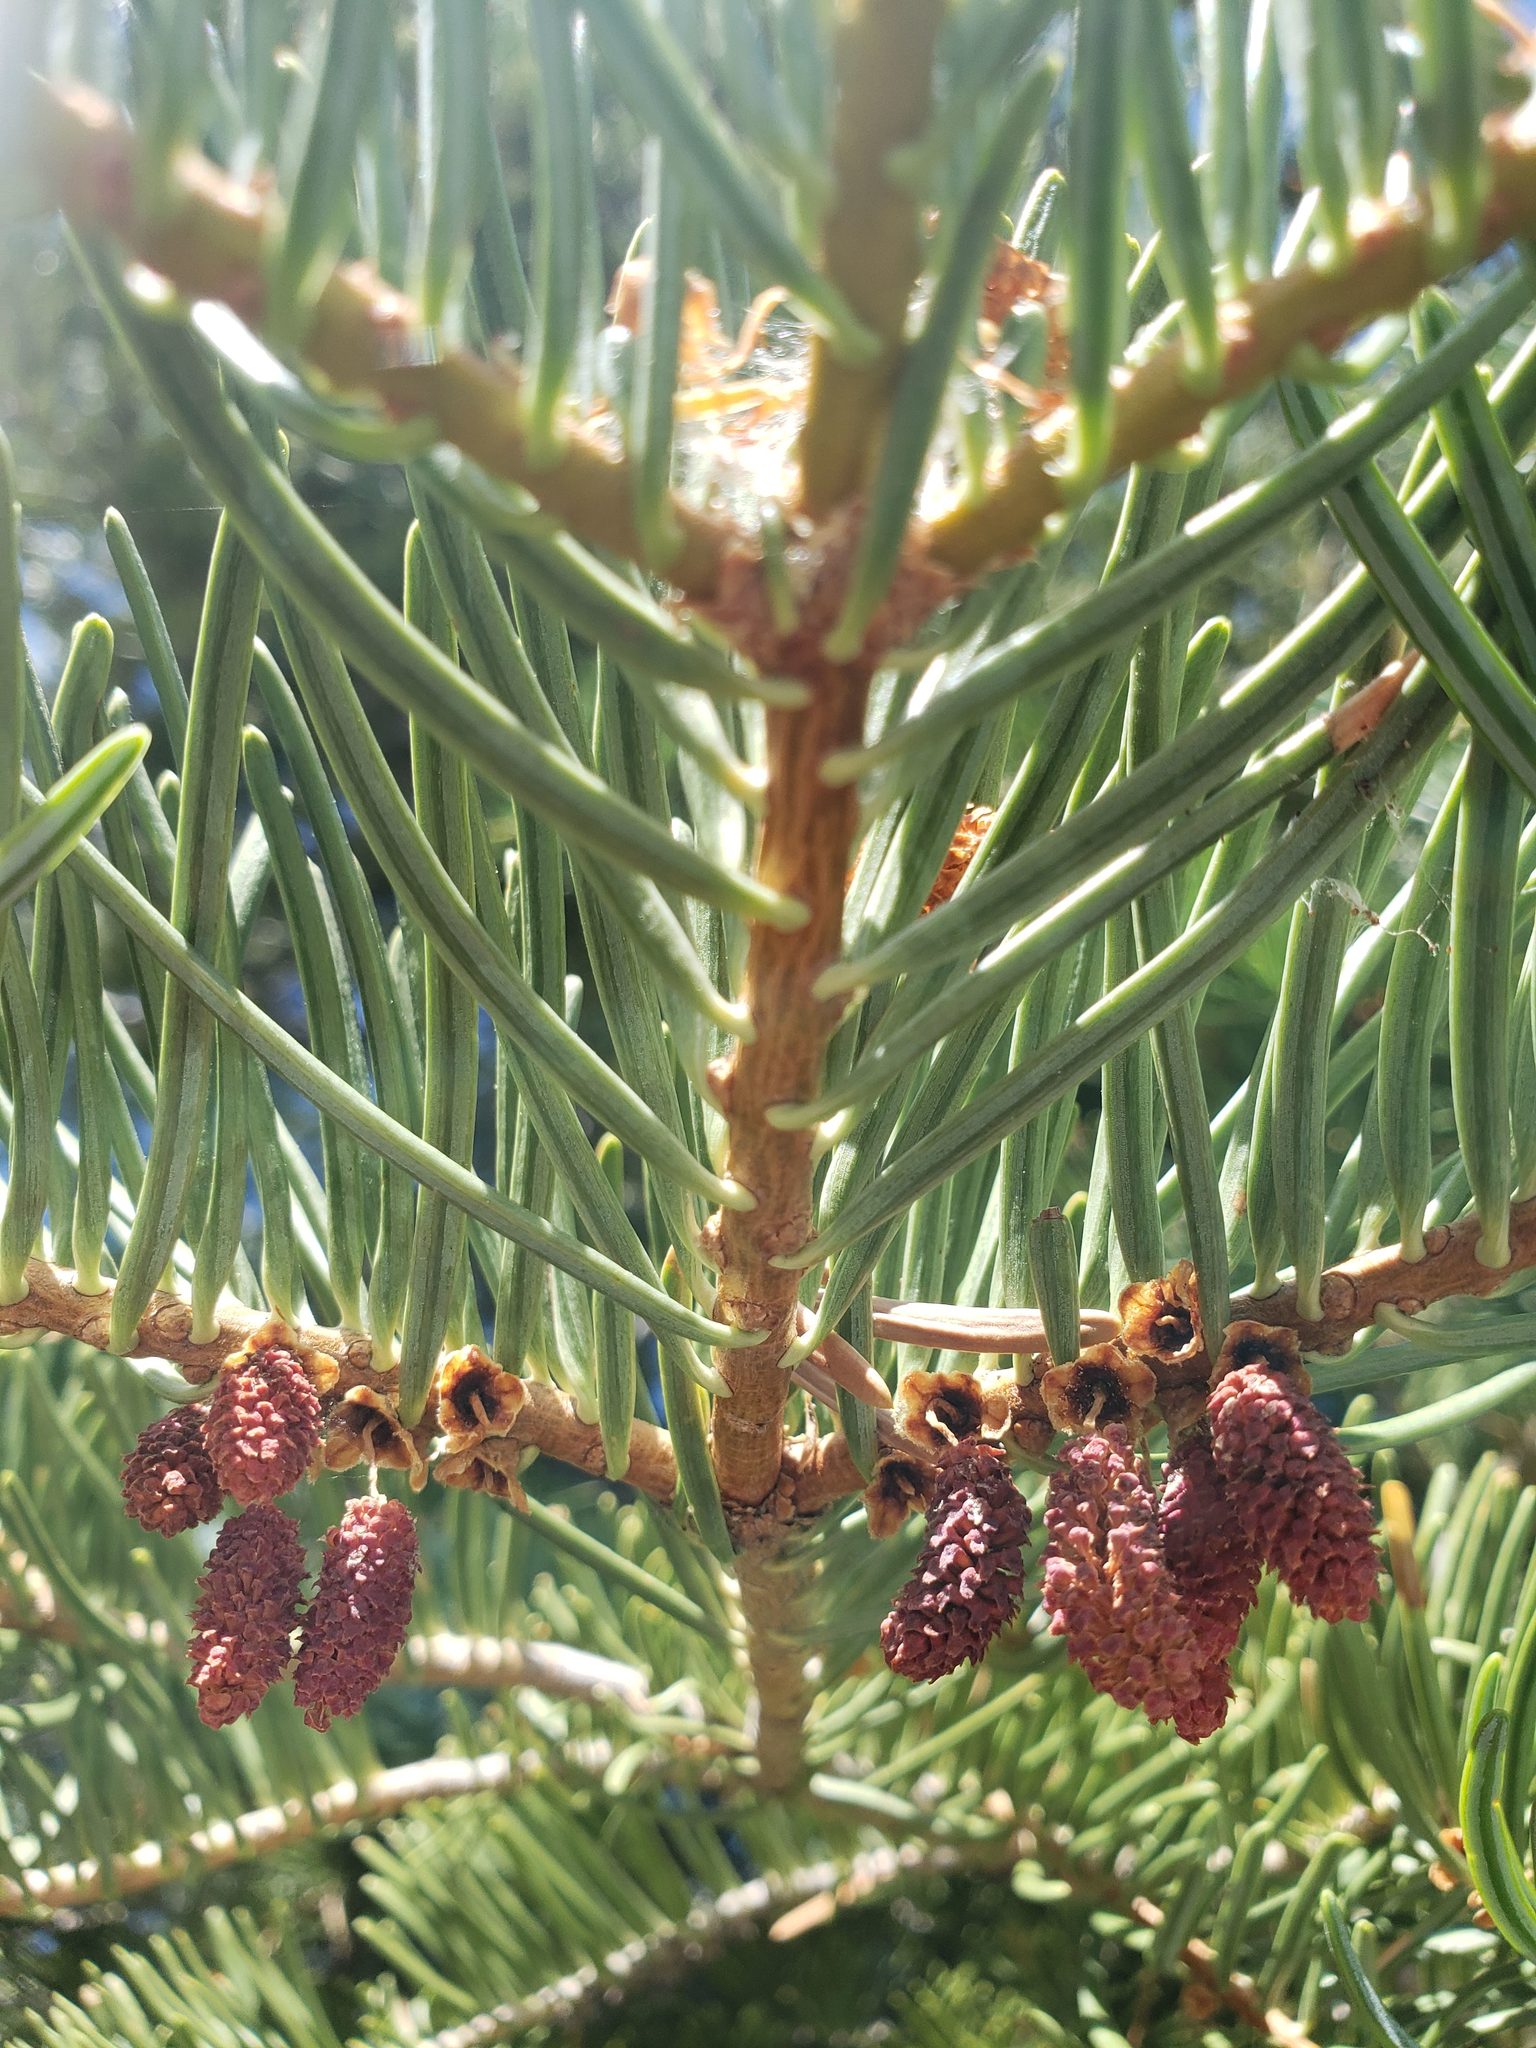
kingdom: Plantae
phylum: Tracheophyta
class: Pinopsida
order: Pinales
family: Pinaceae
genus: Abies
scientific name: Abies concolor
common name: Colorado fir
